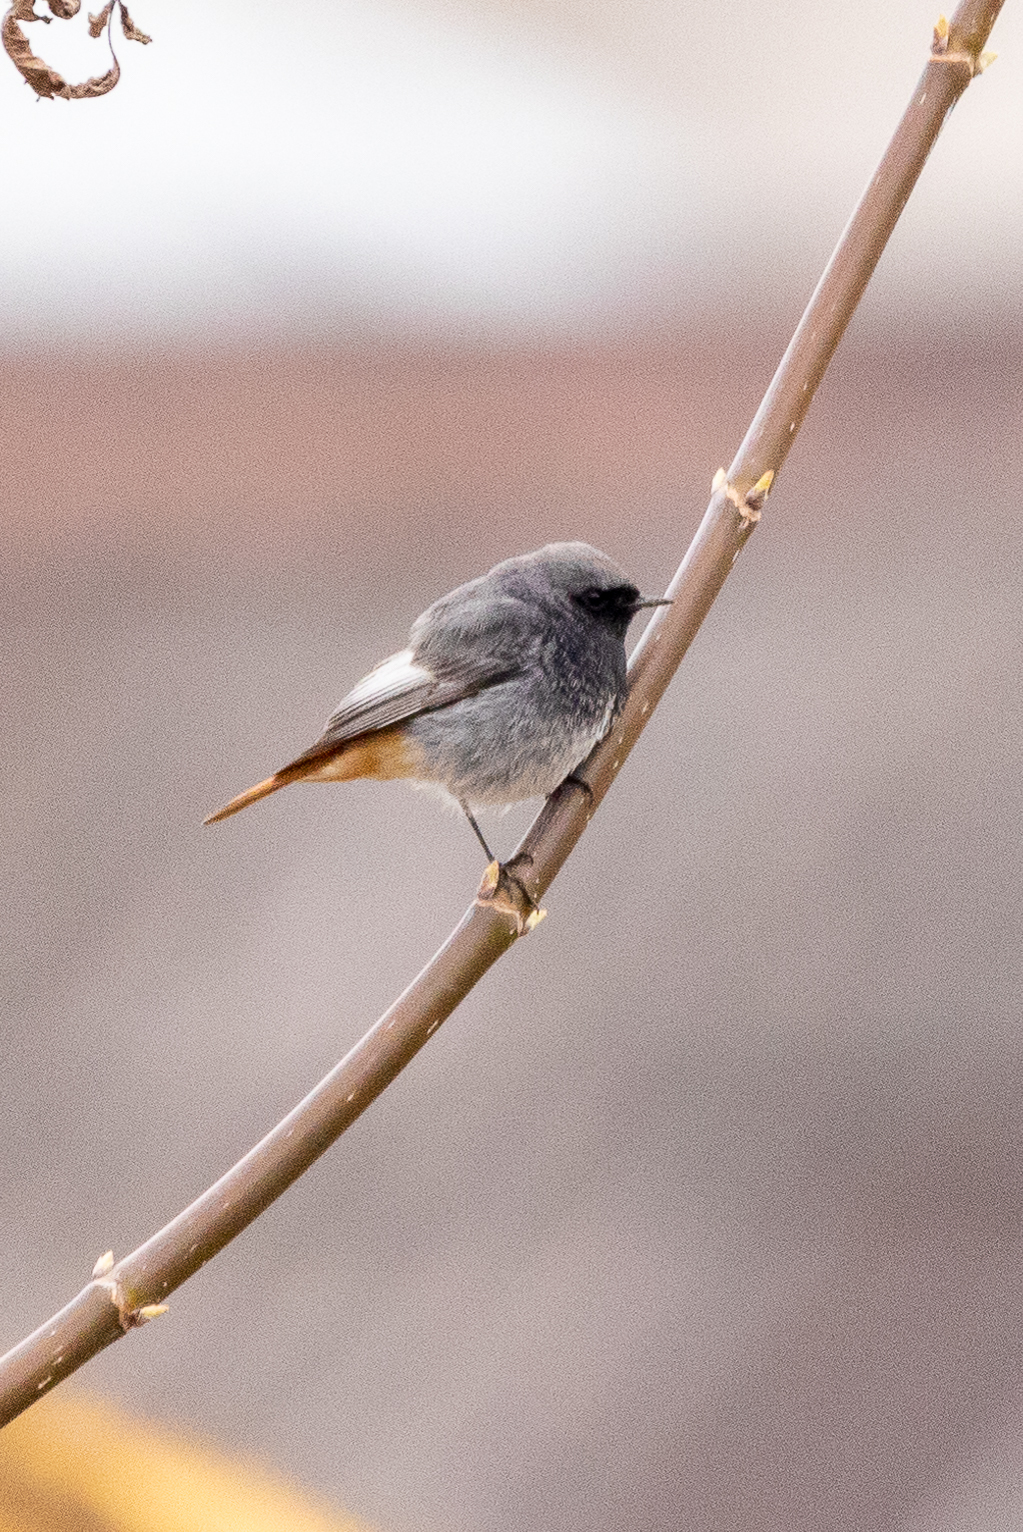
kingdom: Animalia
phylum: Chordata
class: Aves
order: Passeriformes
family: Muscicapidae
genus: Phoenicurus
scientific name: Phoenicurus ochruros
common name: Black redstart
